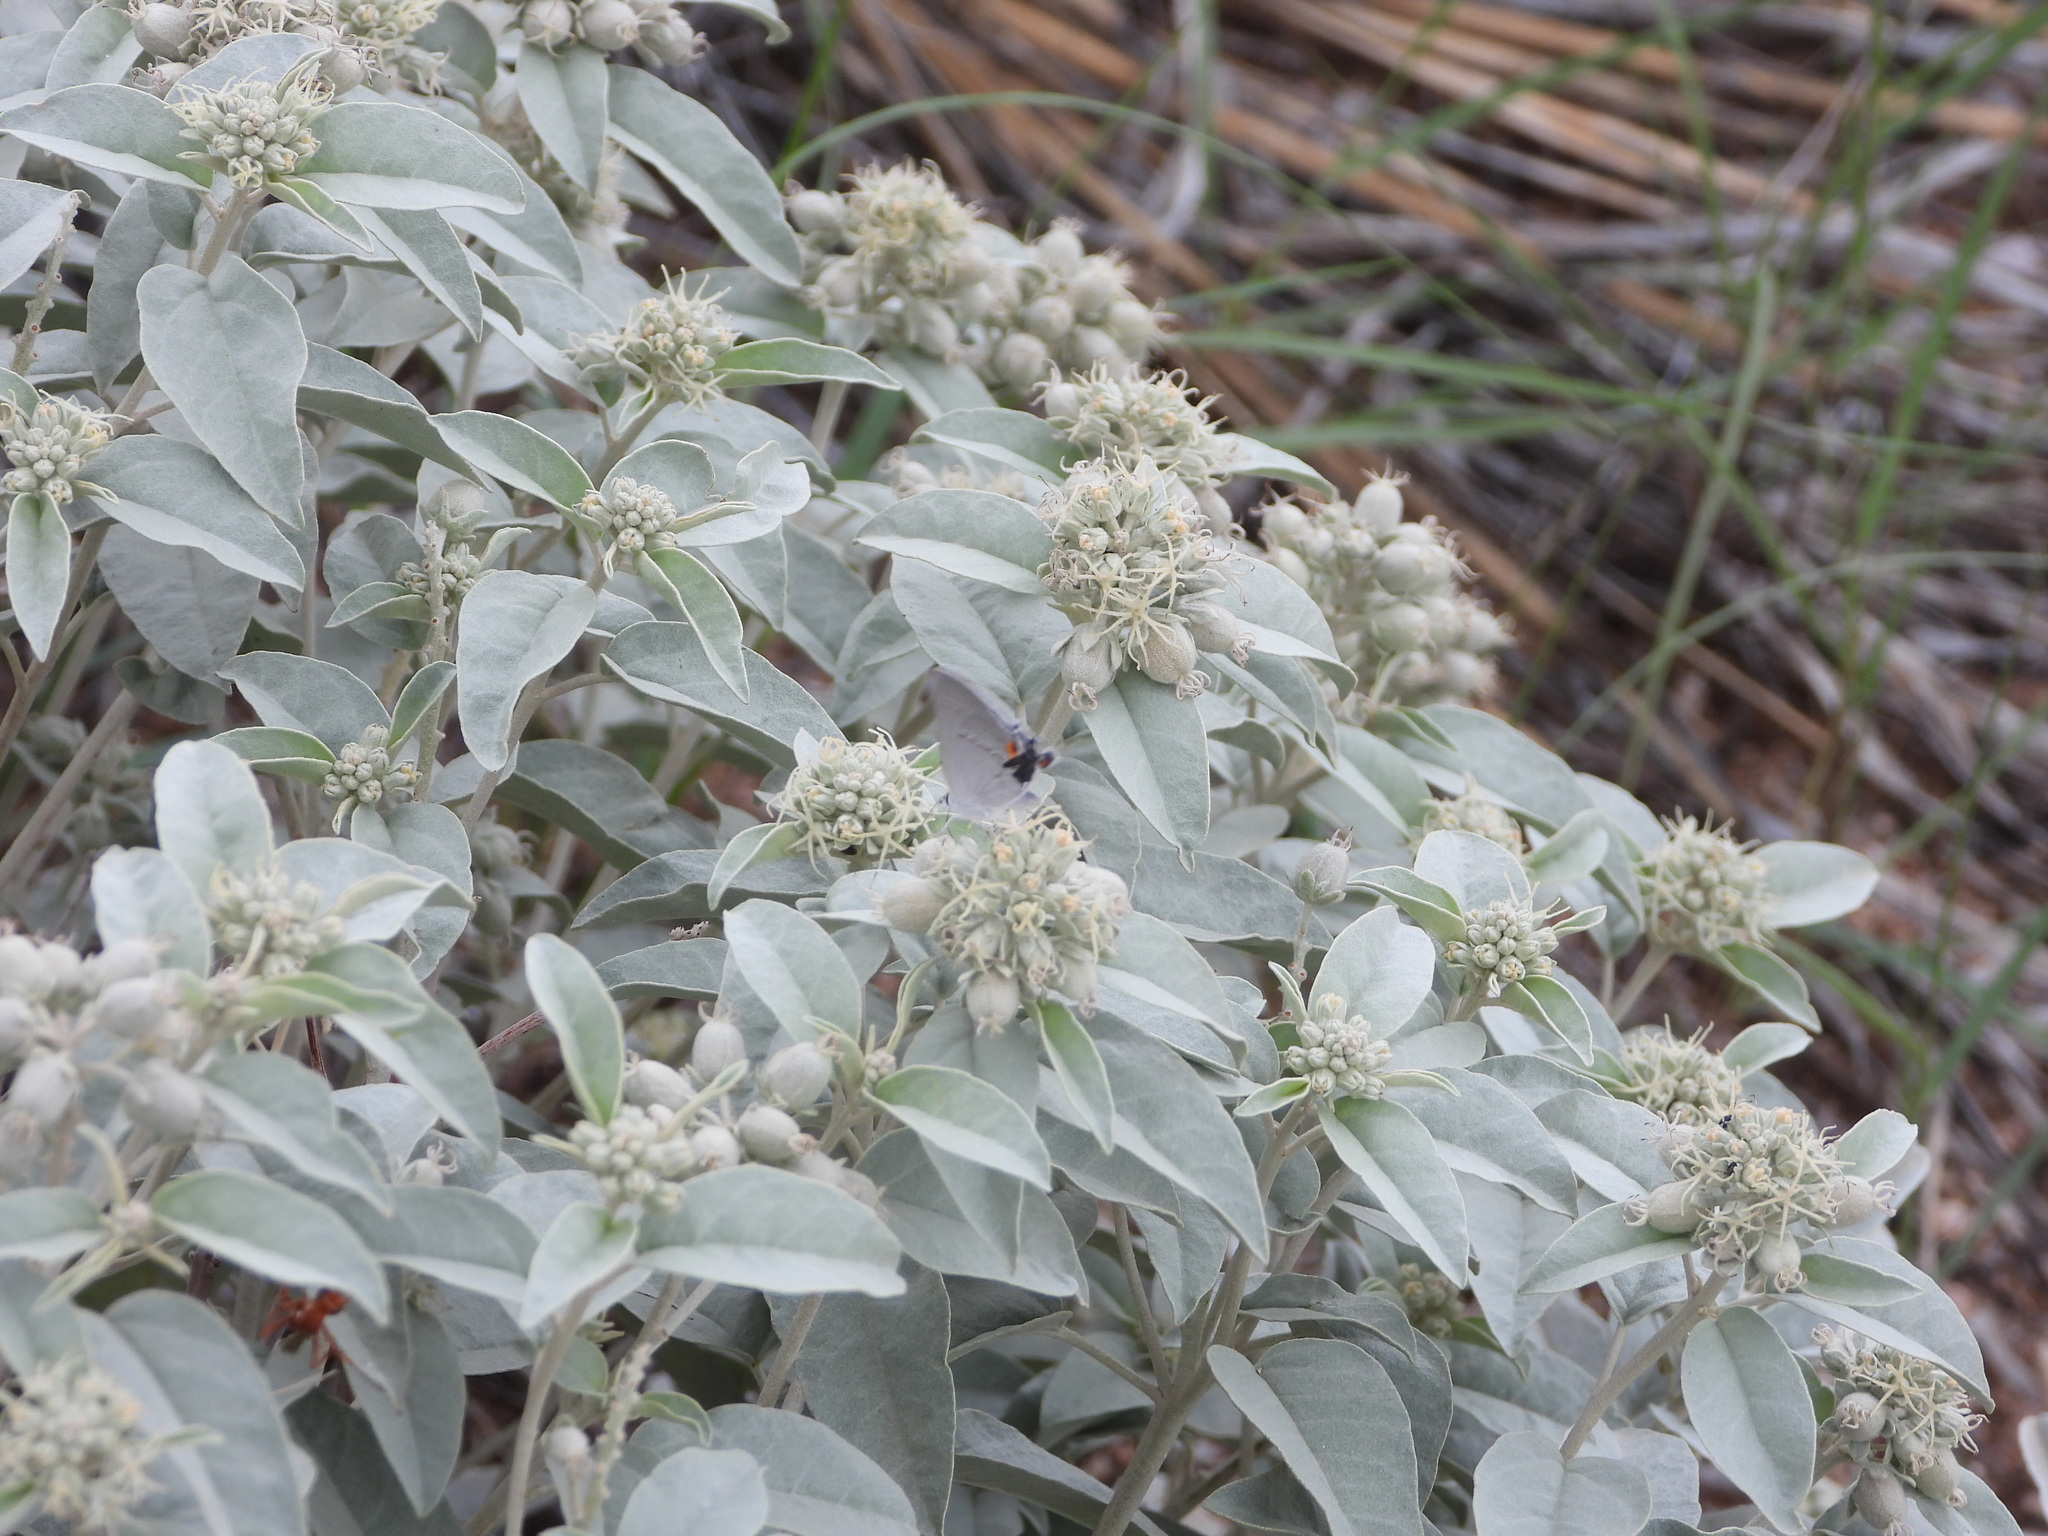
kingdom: Animalia
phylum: Arthropoda
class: Insecta
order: Lepidoptera
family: Lycaenidae
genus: Strymon
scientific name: Strymon melinus
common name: Gray hairstreak
